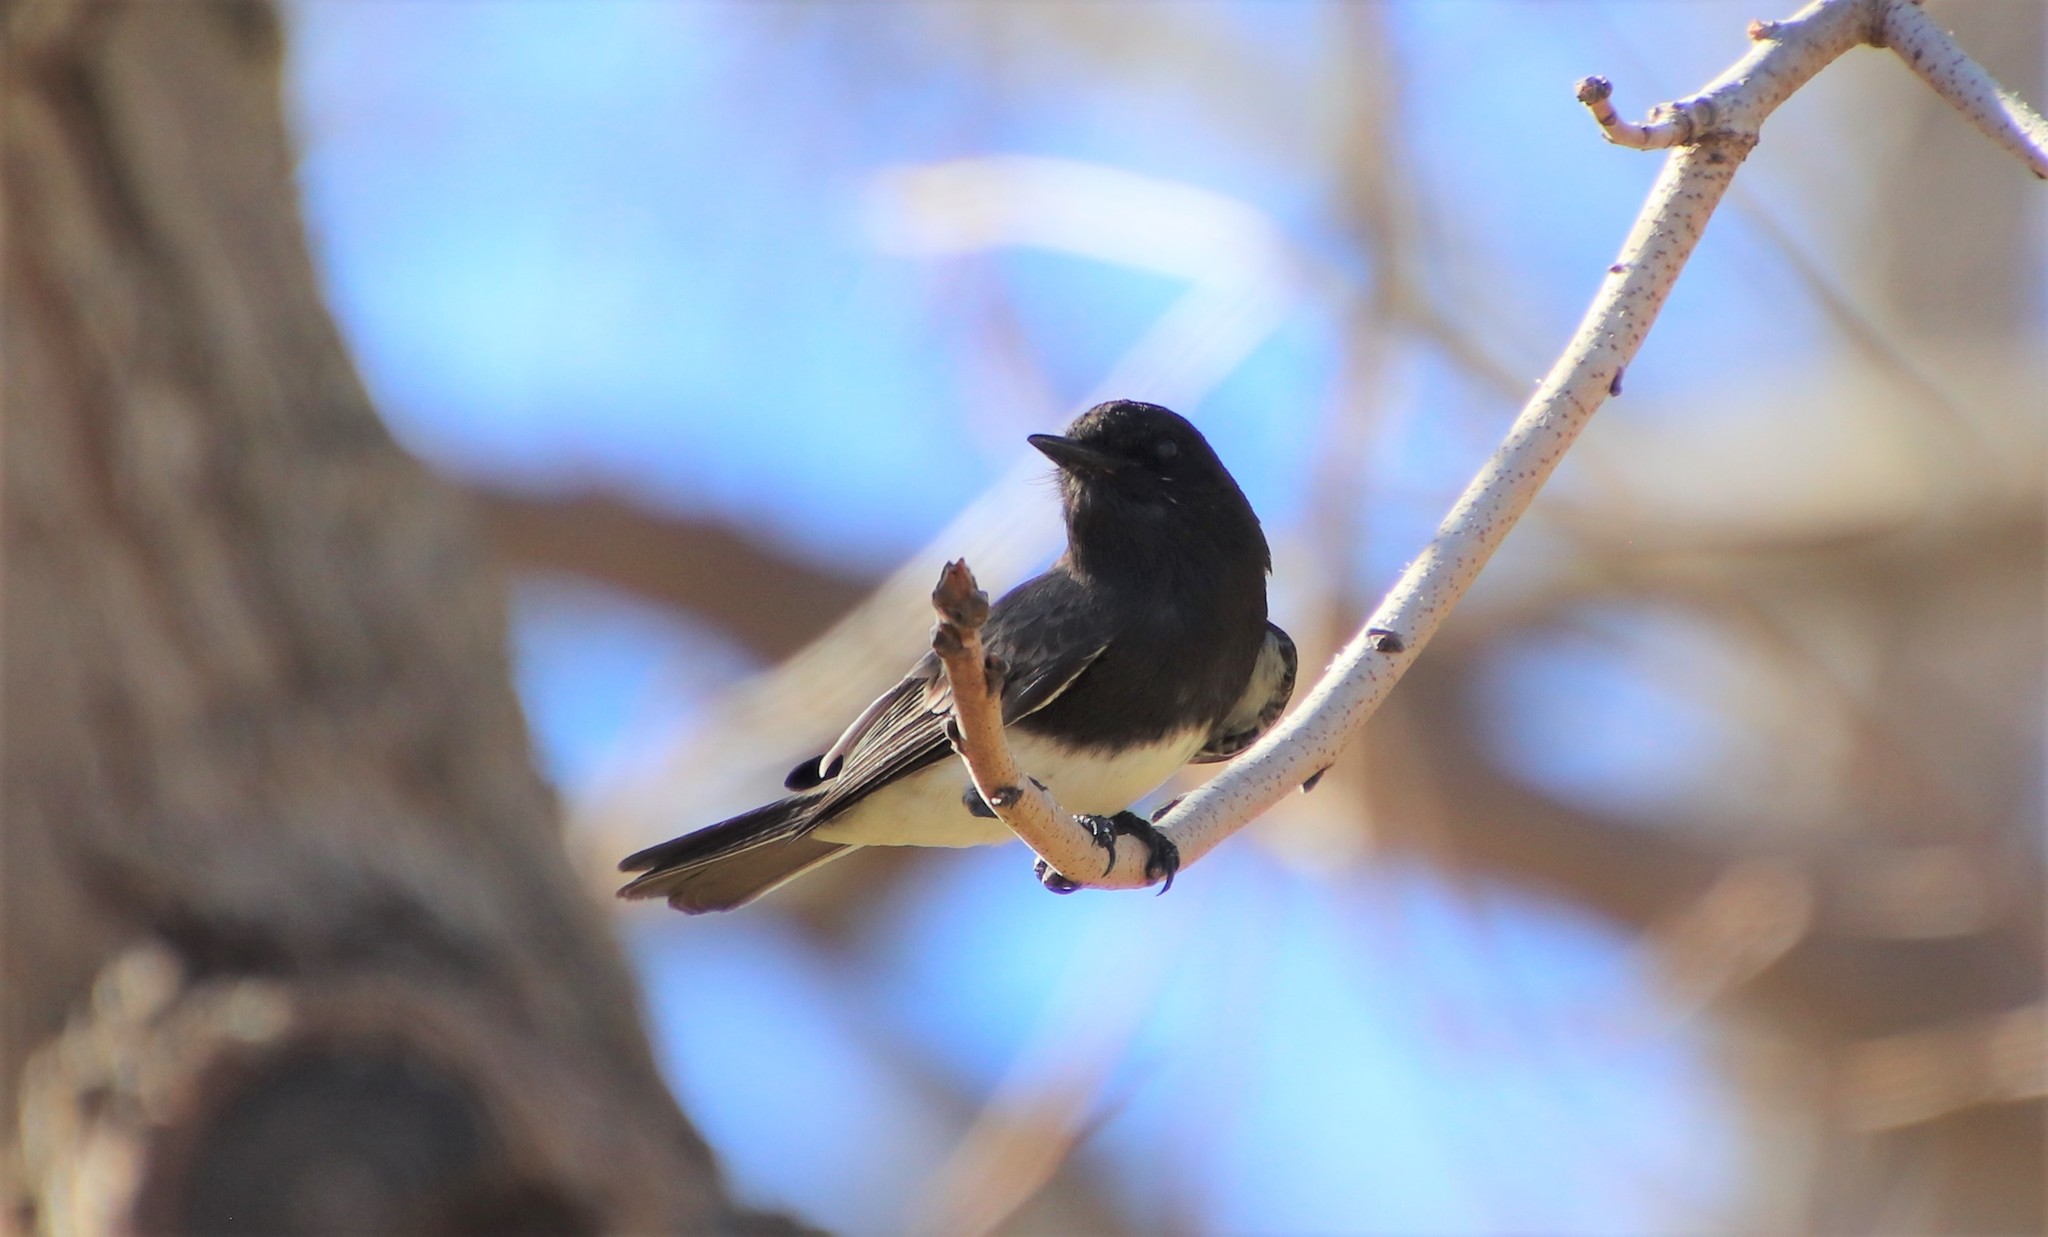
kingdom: Animalia
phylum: Chordata
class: Aves
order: Passeriformes
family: Tyrannidae
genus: Sayornis
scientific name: Sayornis nigricans
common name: Black phoebe
